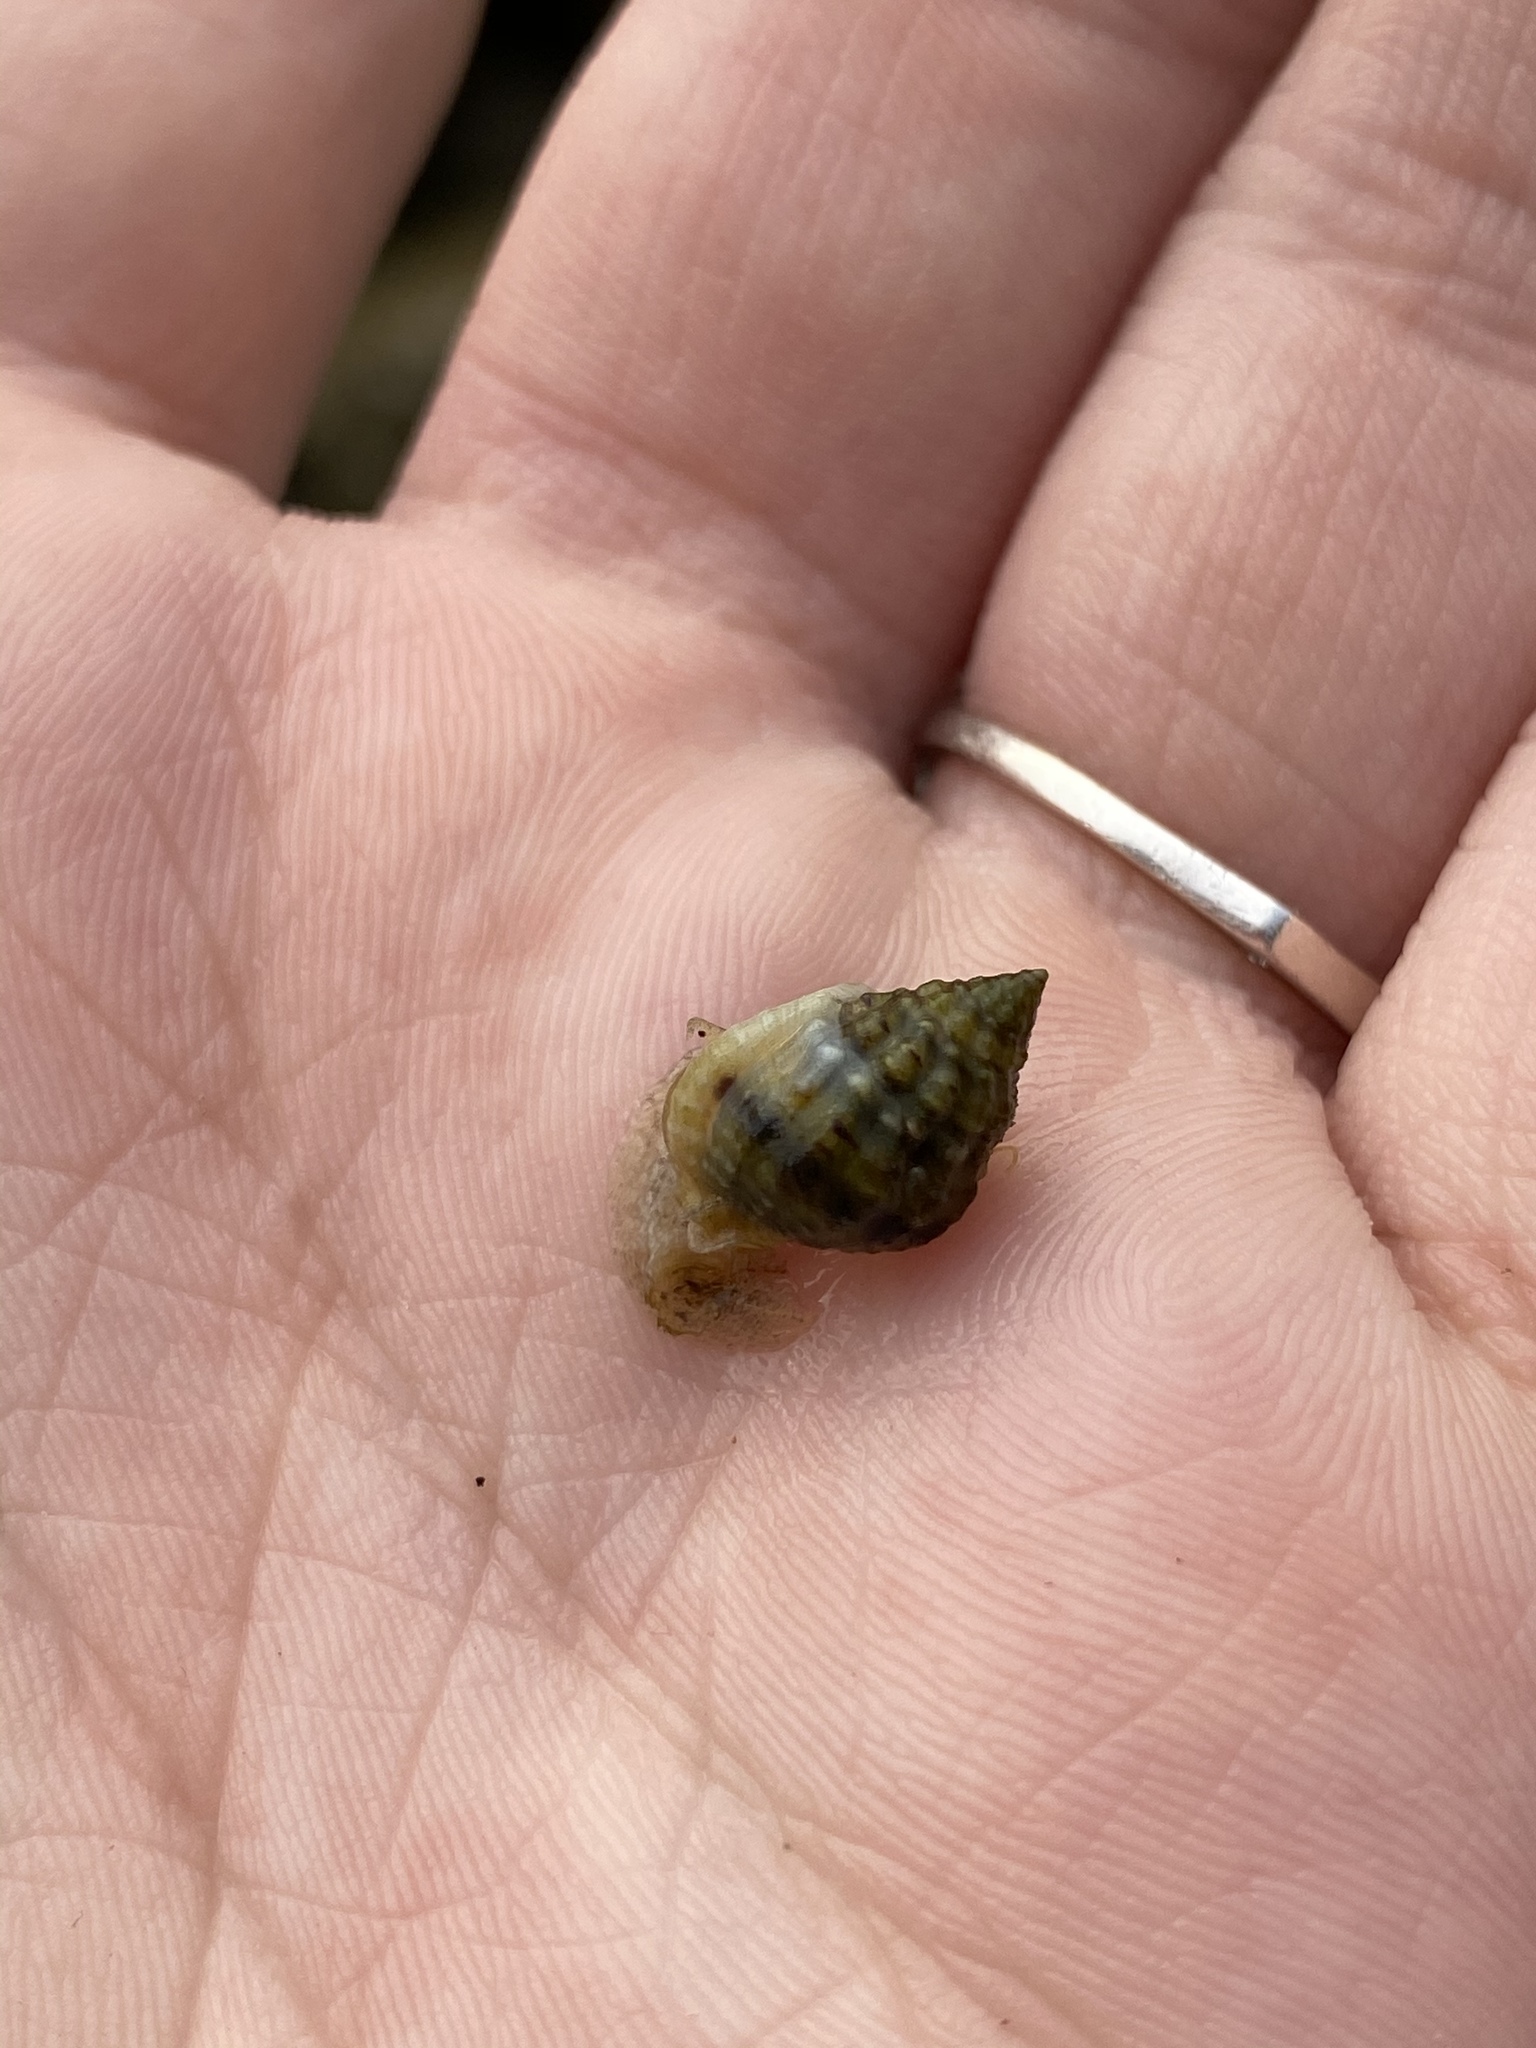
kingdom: Animalia
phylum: Mollusca
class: Gastropoda
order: Neogastropoda
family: Nassariidae
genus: Phrontis
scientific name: Phrontis vibex
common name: Bruised nassa
